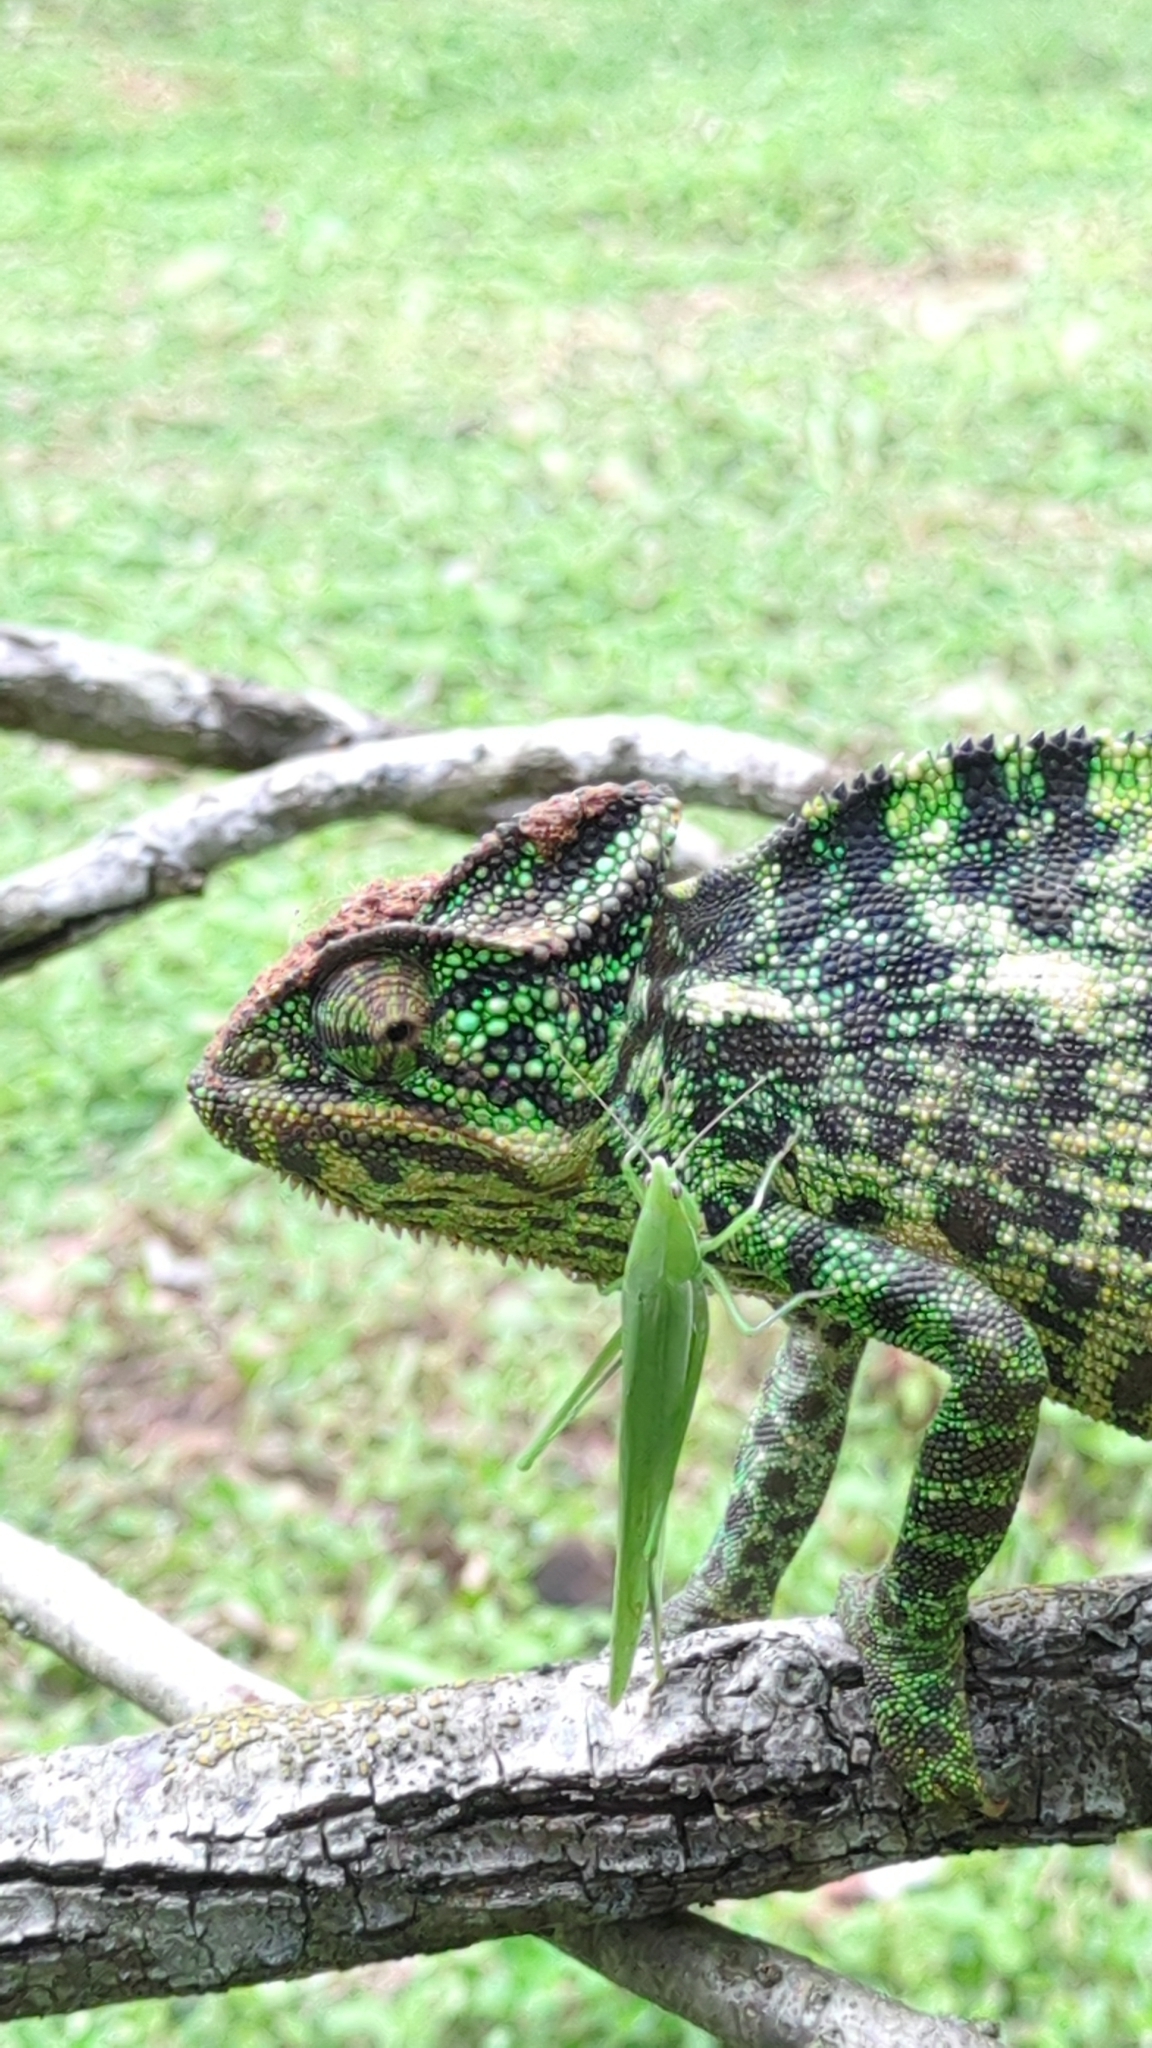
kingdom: Animalia
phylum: Chordata
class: Squamata
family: Chamaeleonidae
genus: Chamaeleo
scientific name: Chamaeleo zeylanicus
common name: Indian chameleon
